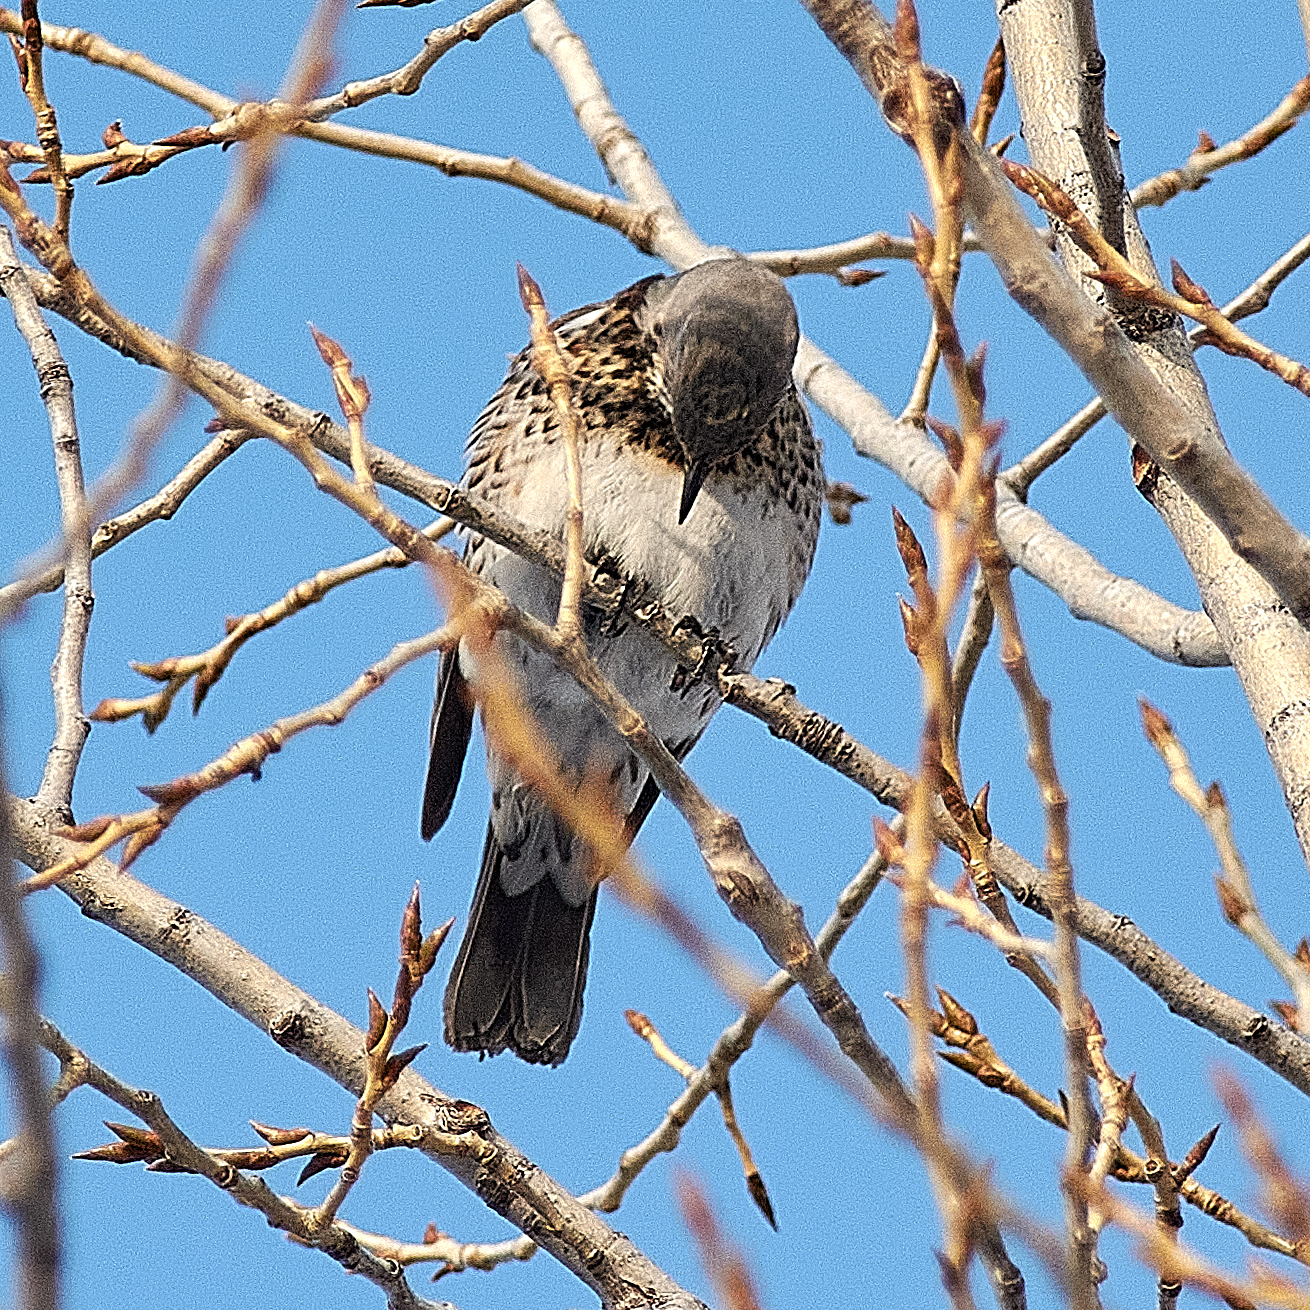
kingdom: Animalia
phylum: Chordata
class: Aves
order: Passeriformes
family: Turdidae
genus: Turdus
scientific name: Turdus pilaris
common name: Fieldfare
